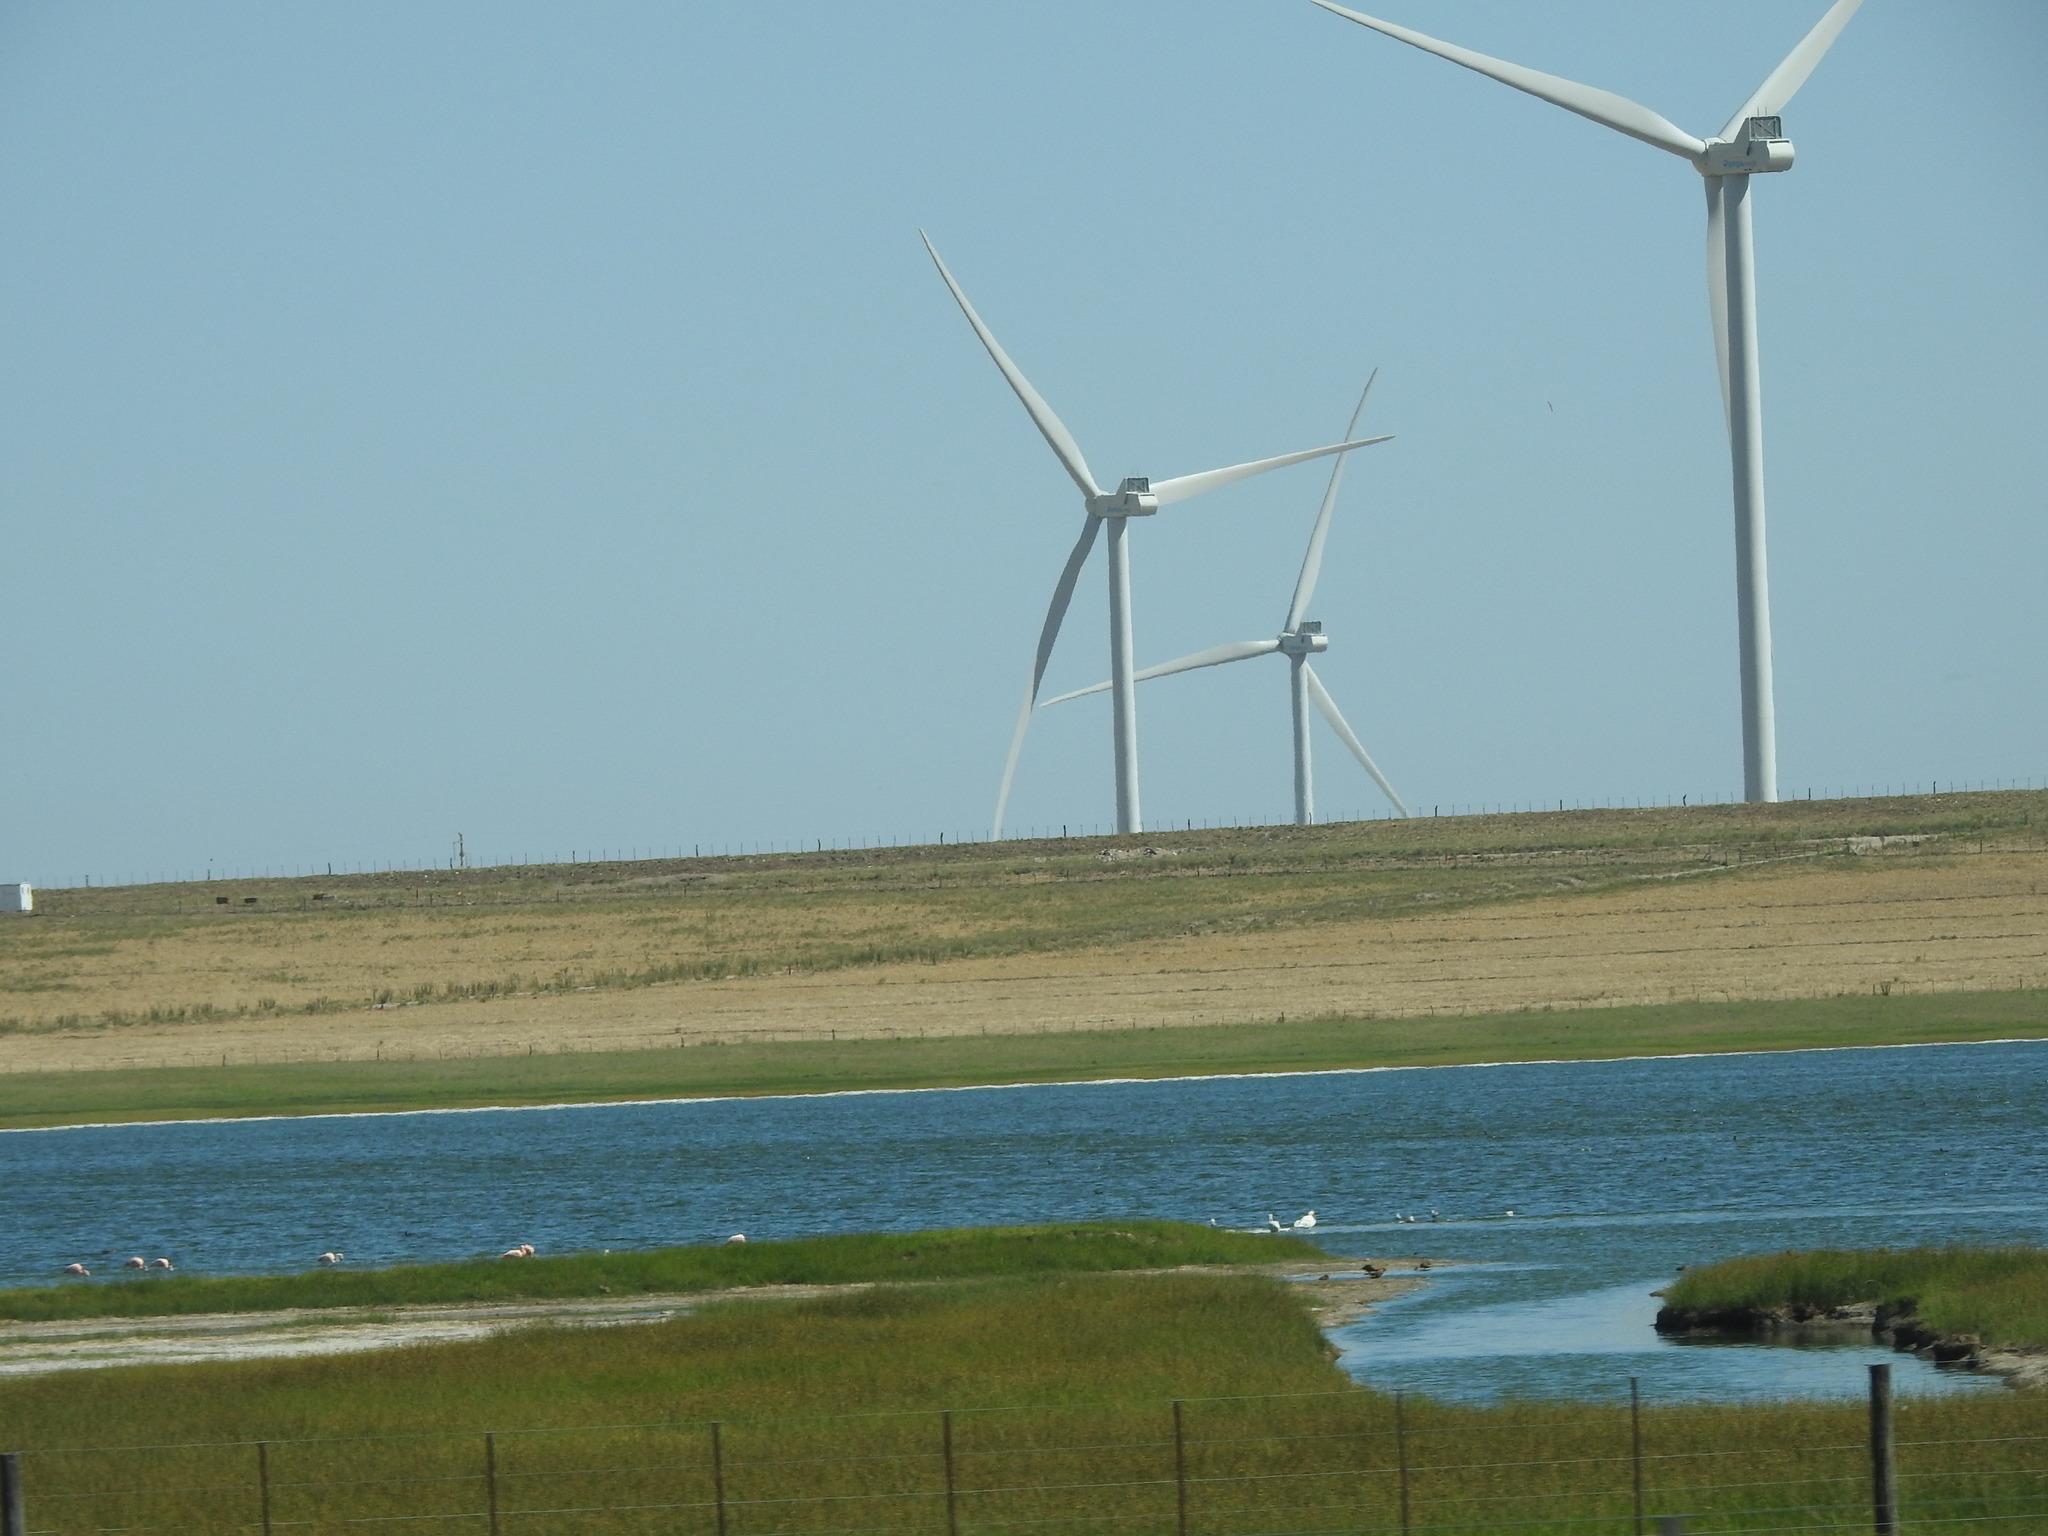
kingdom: Animalia
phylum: Chordata
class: Aves
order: Phoenicopteriformes
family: Phoenicopteridae
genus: Phoenicopterus
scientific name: Phoenicopterus chilensis
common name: Chilean flamingo
